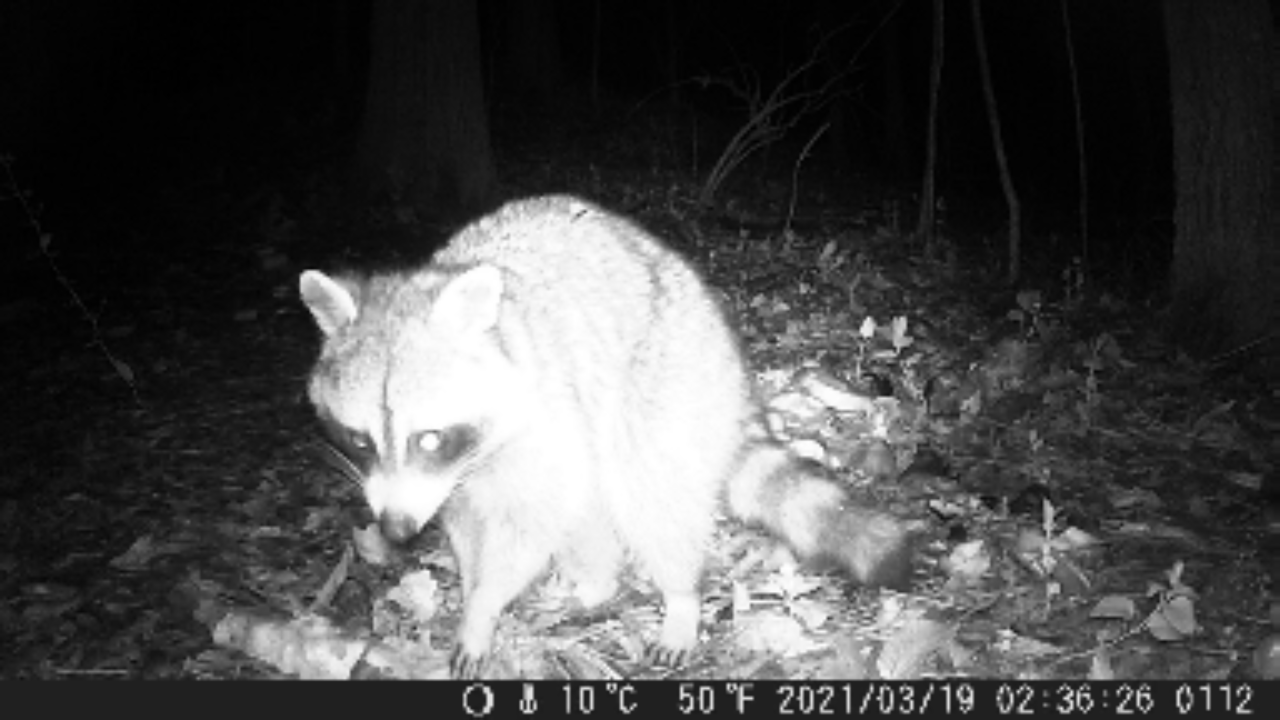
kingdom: Animalia
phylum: Chordata
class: Mammalia
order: Carnivora
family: Procyonidae
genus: Procyon
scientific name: Procyon lotor
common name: Raccoon
